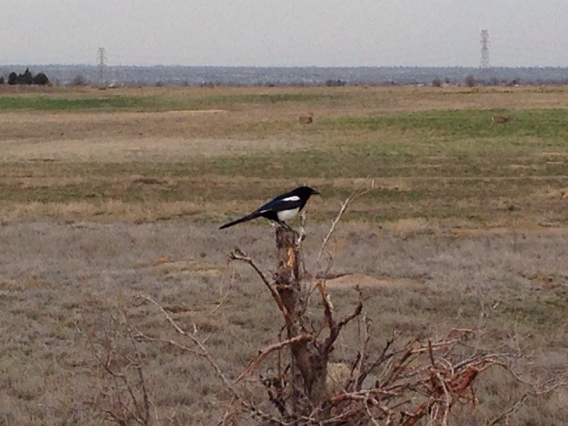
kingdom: Animalia
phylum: Chordata
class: Aves
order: Passeriformes
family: Corvidae
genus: Pica
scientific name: Pica hudsonia
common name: Black-billed magpie
